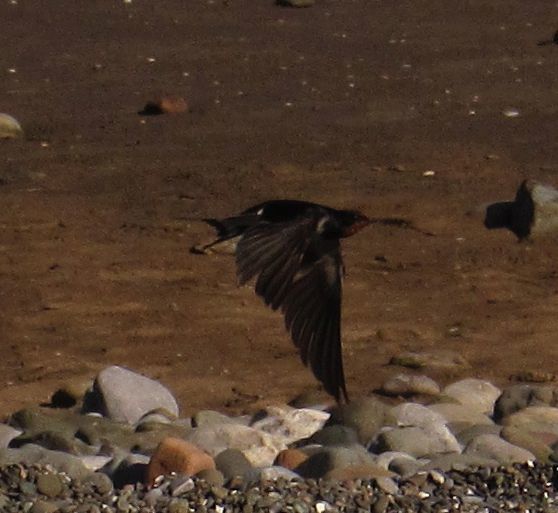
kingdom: Animalia
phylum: Chordata
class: Aves
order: Passeriformes
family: Hirundinidae
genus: Hirundo
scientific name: Hirundo rustica
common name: Barn swallow
